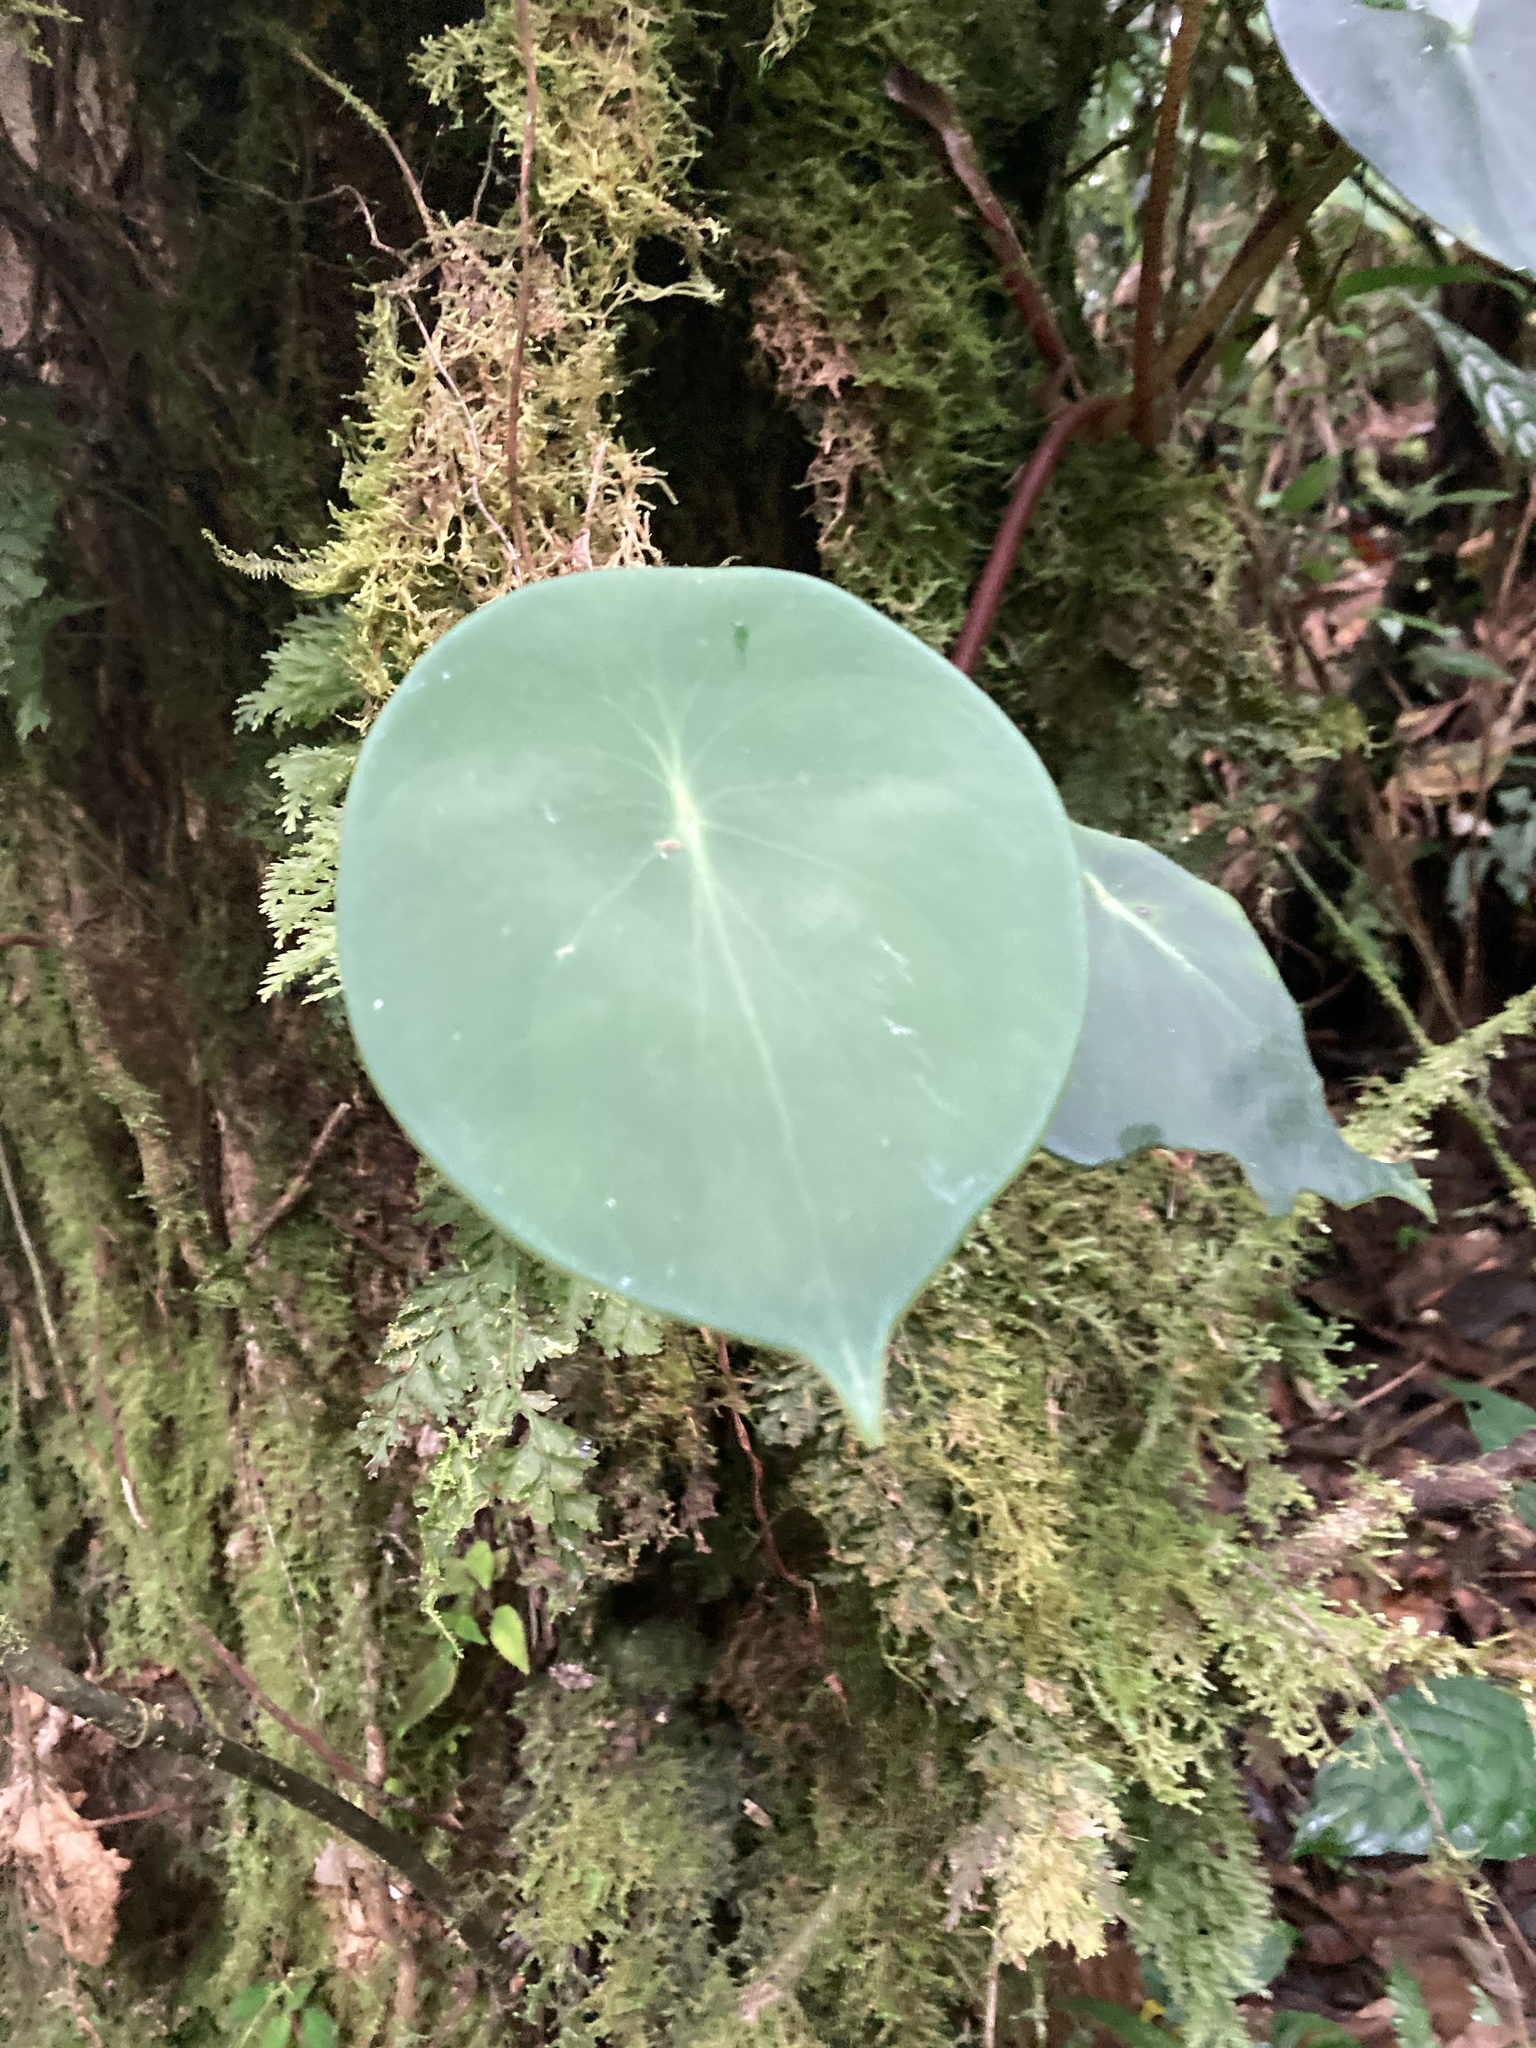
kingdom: Plantae
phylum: Tracheophyta
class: Magnoliopsida
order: Piperales
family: Piperaceae
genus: Peperomia
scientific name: Peperomia hernandiifolia
